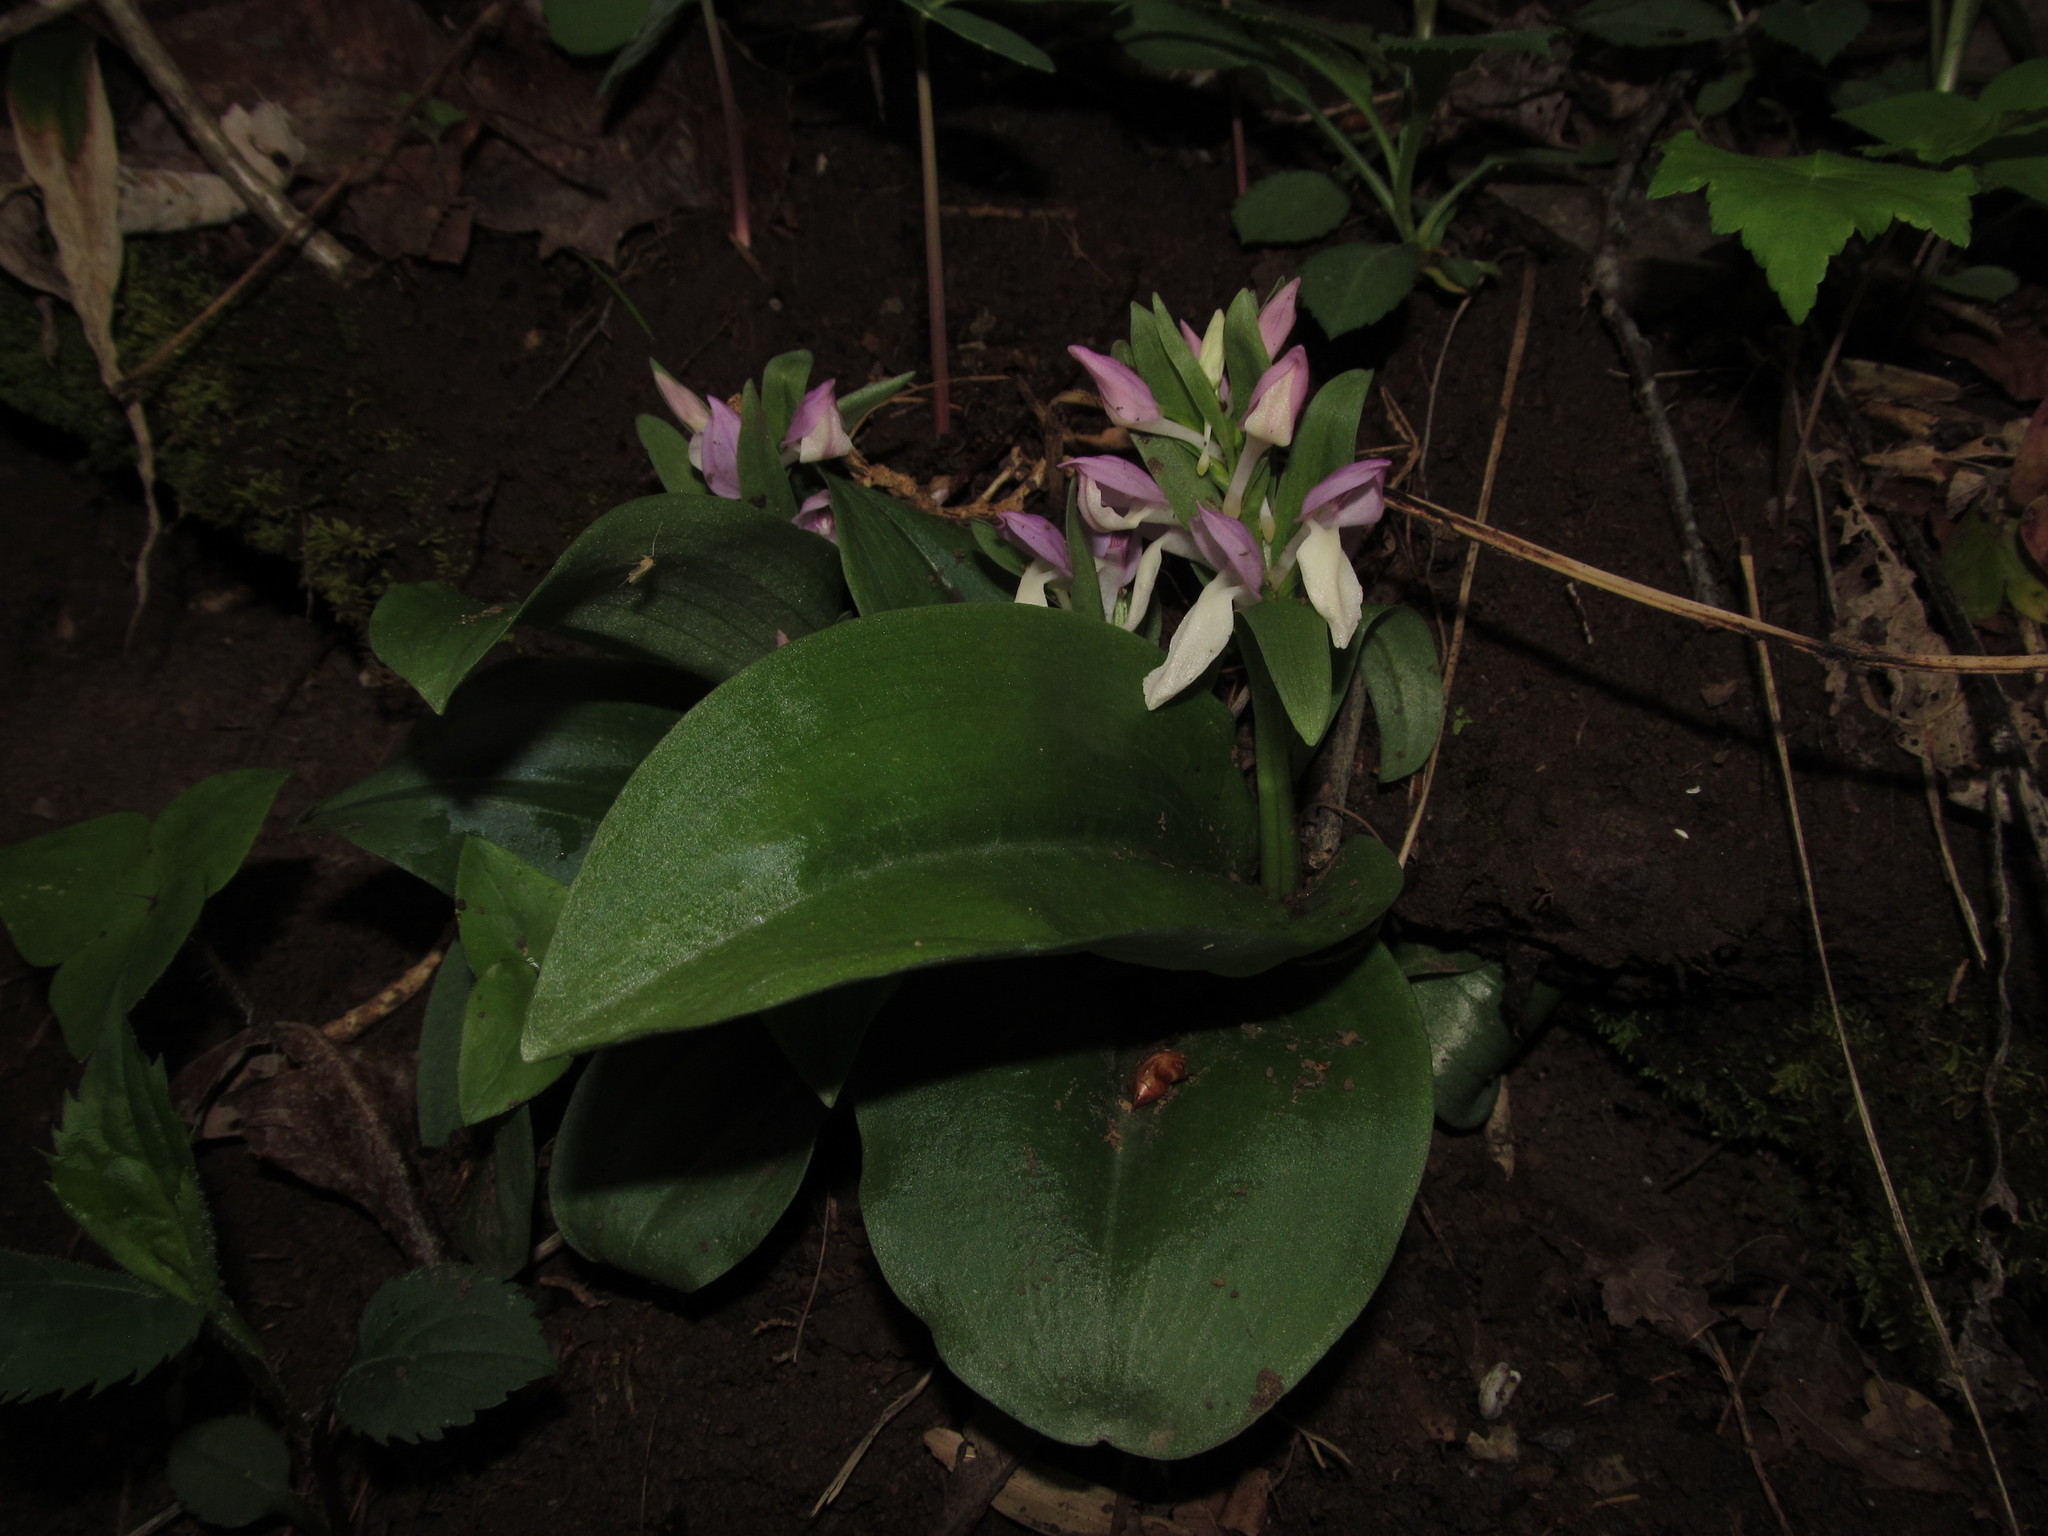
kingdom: Plantae
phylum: Tracheophyta
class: Liliopsida
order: Asparagales
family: Orchidaceae
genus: Galearis
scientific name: Galearis spectabilis
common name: Purple-hooded orchis
